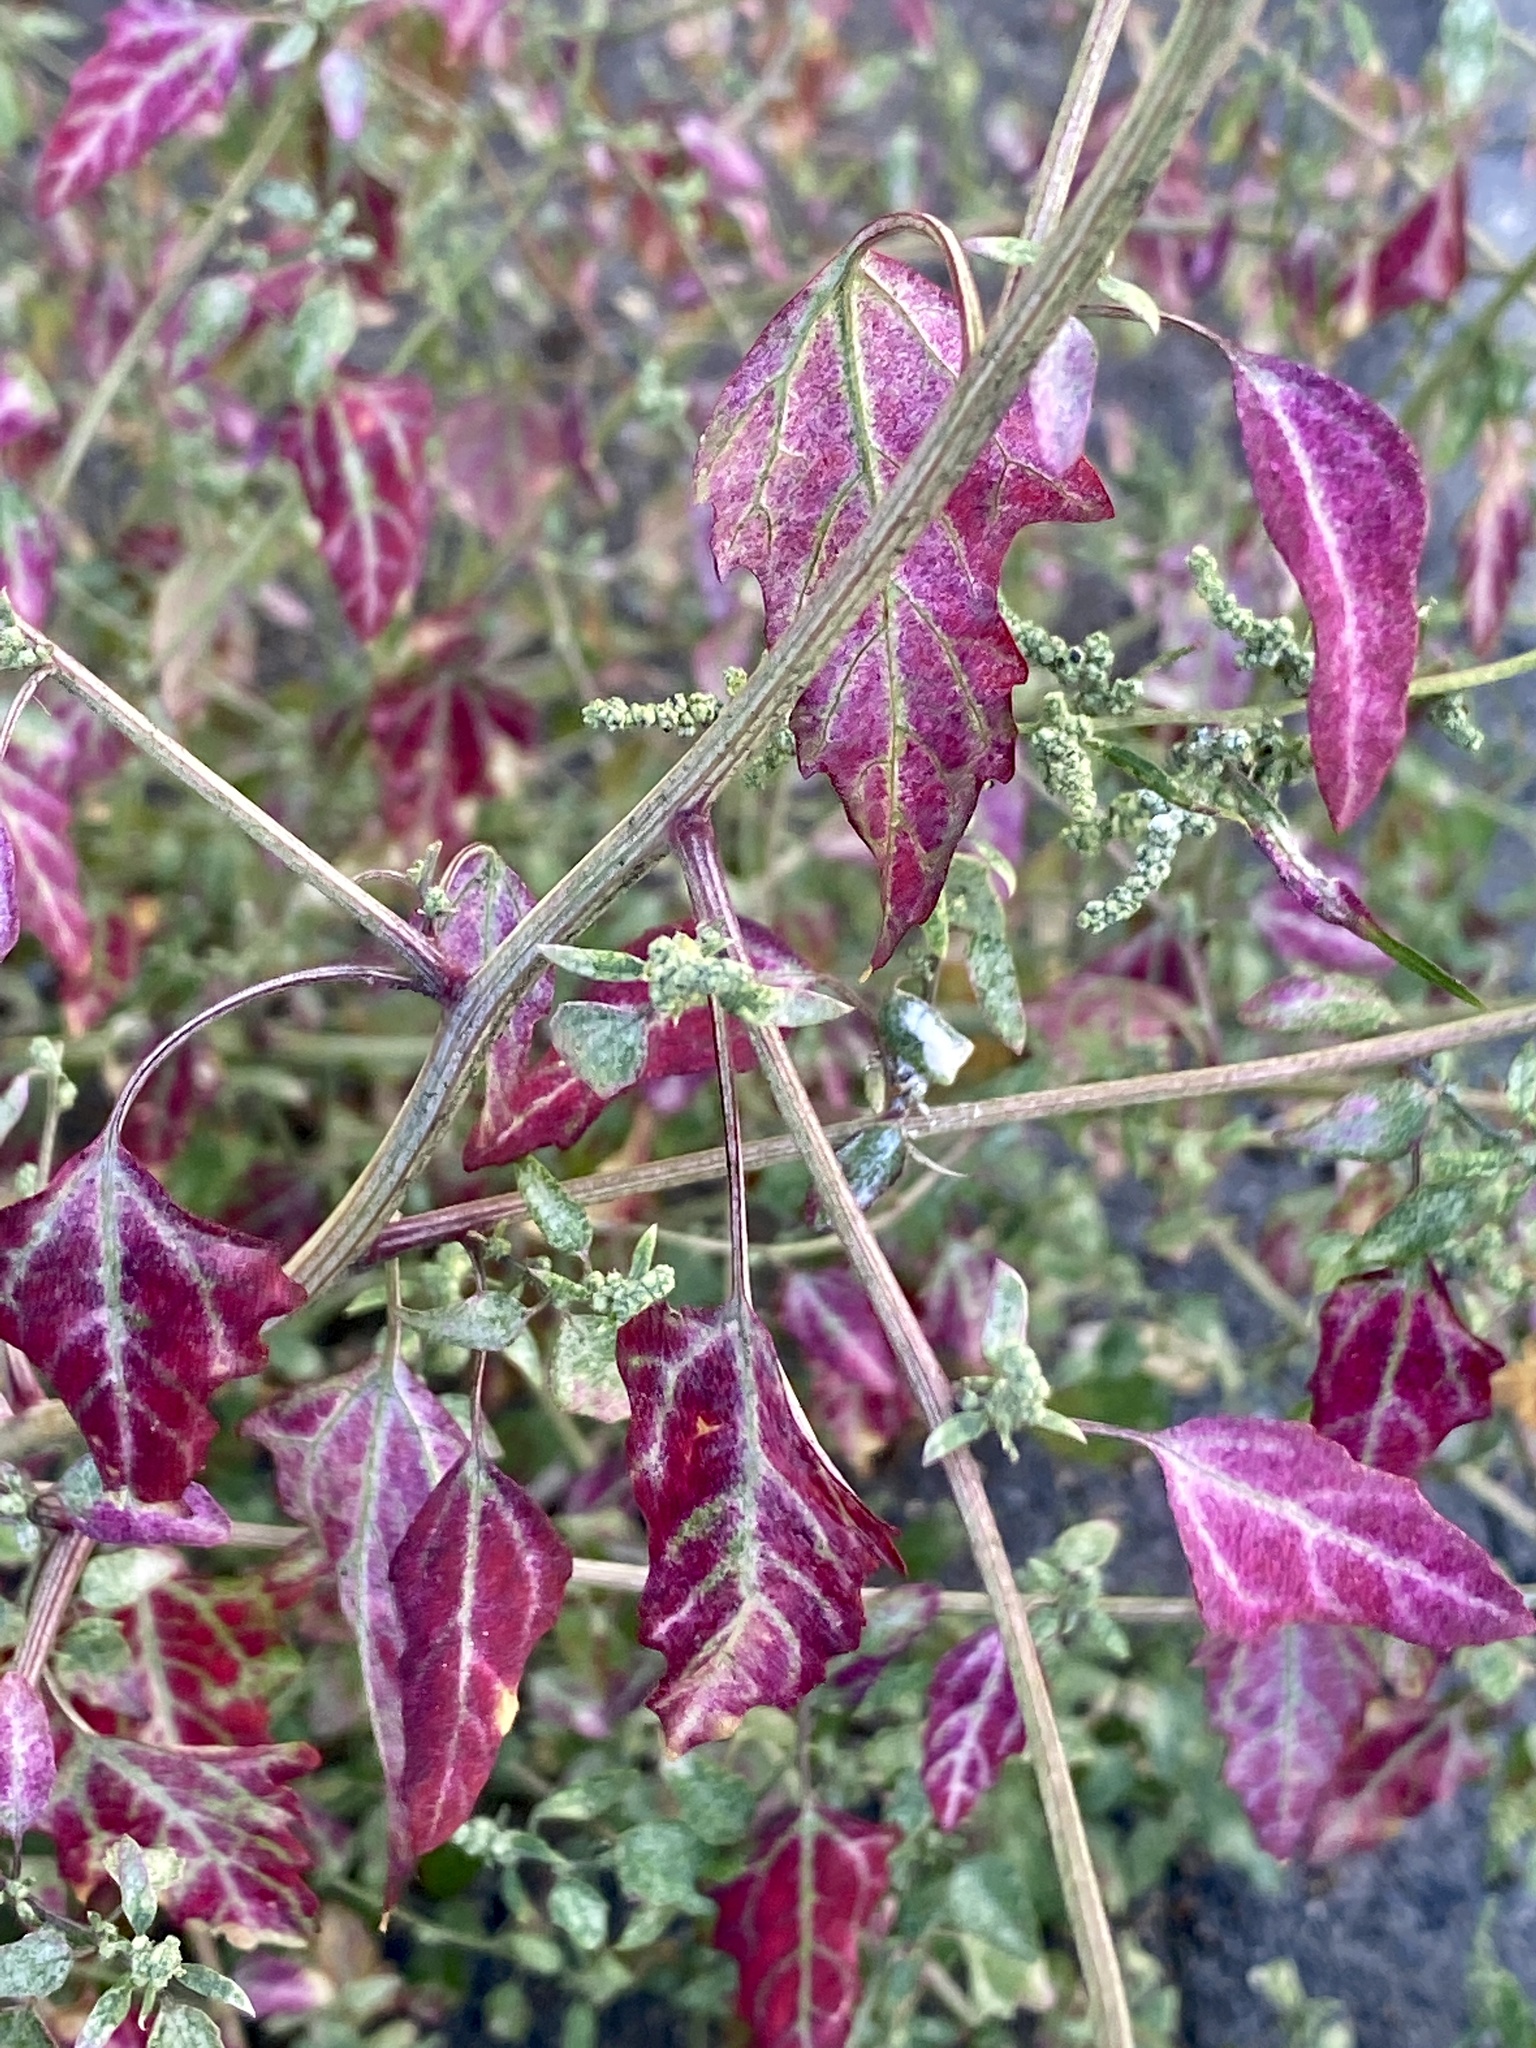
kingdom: Plantae
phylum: Tracheophyta
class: Magnoliopsida
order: Caryophyllales
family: Amaranthaceae
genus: Chenopodium
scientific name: Chenopodium album
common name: Fat-hen
